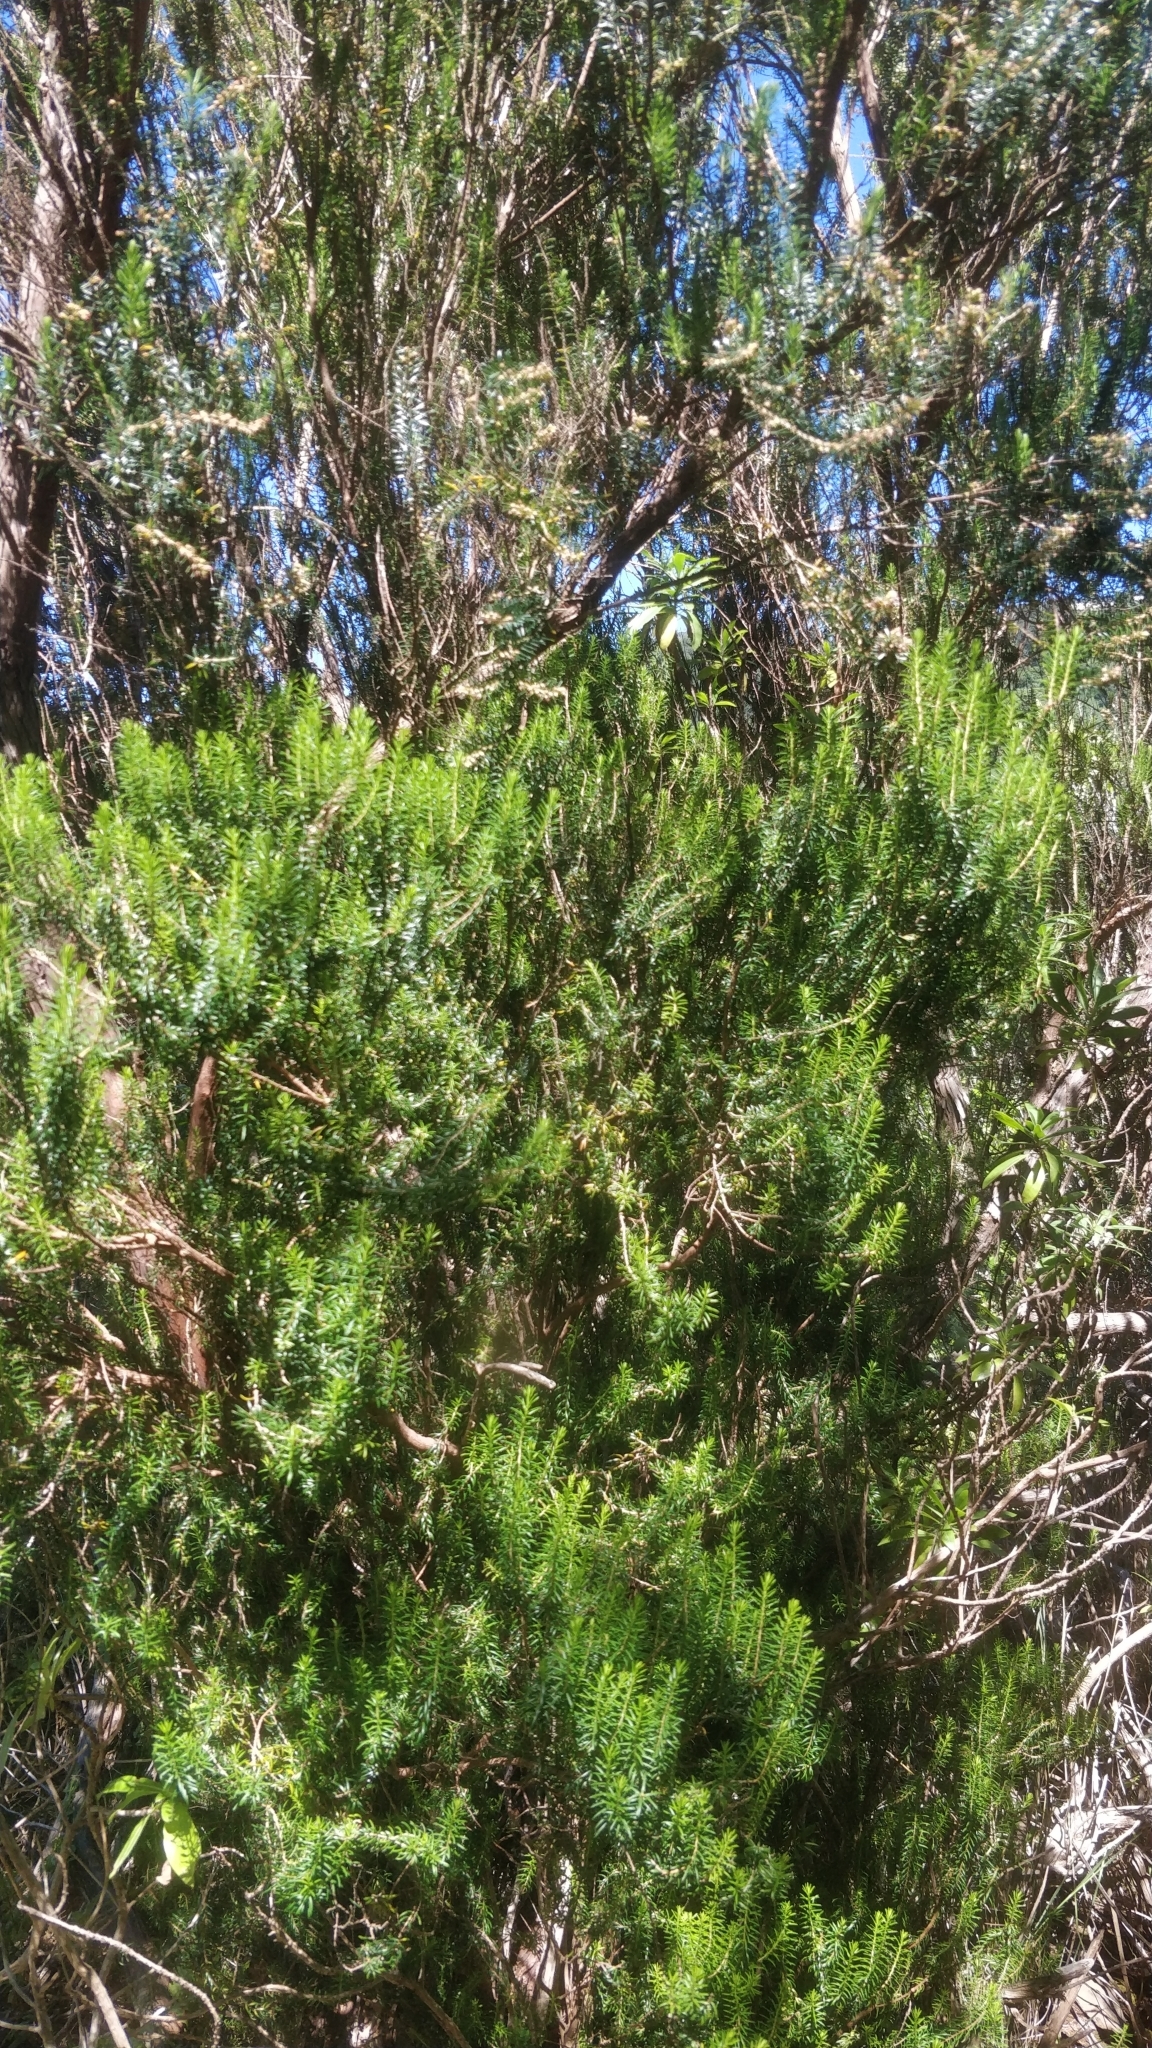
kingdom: Plantae
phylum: Tracheophyta
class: Magnoliopsida
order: Ericales
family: Ericaceae
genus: Erica
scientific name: Erica platycodon
